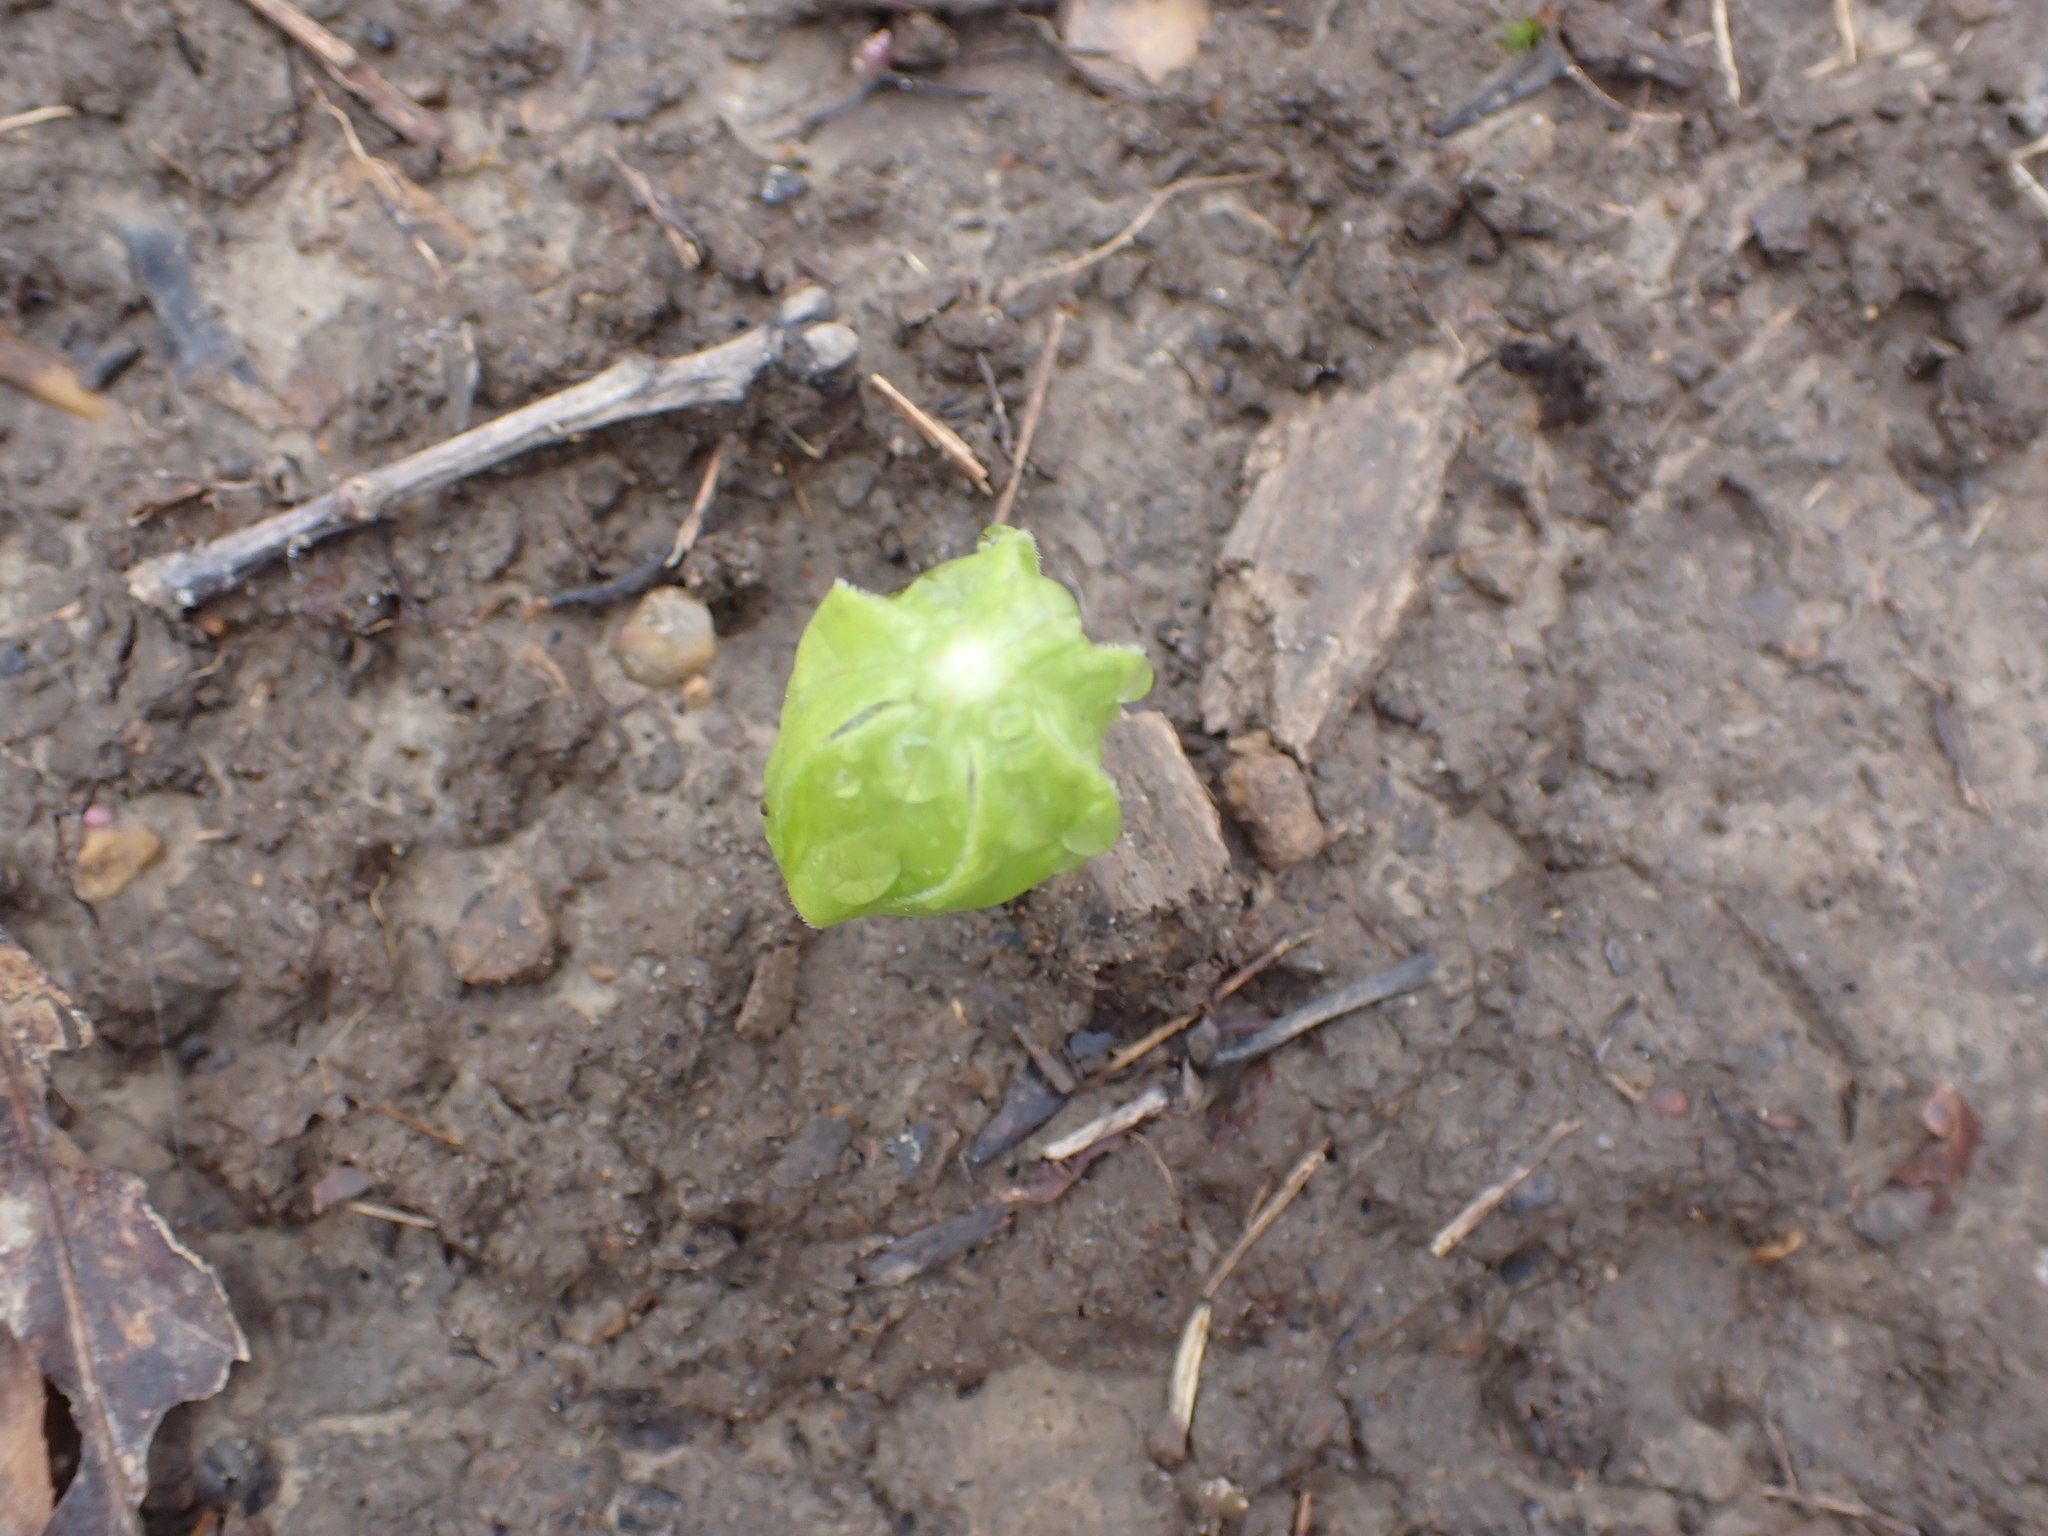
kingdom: Plantae
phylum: Tracheophyta
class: Magnoliopsida
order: Ranunculales
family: Berberidaceae
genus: Podophyllum
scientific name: Podophyllum peltatum
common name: Wild mandrake
